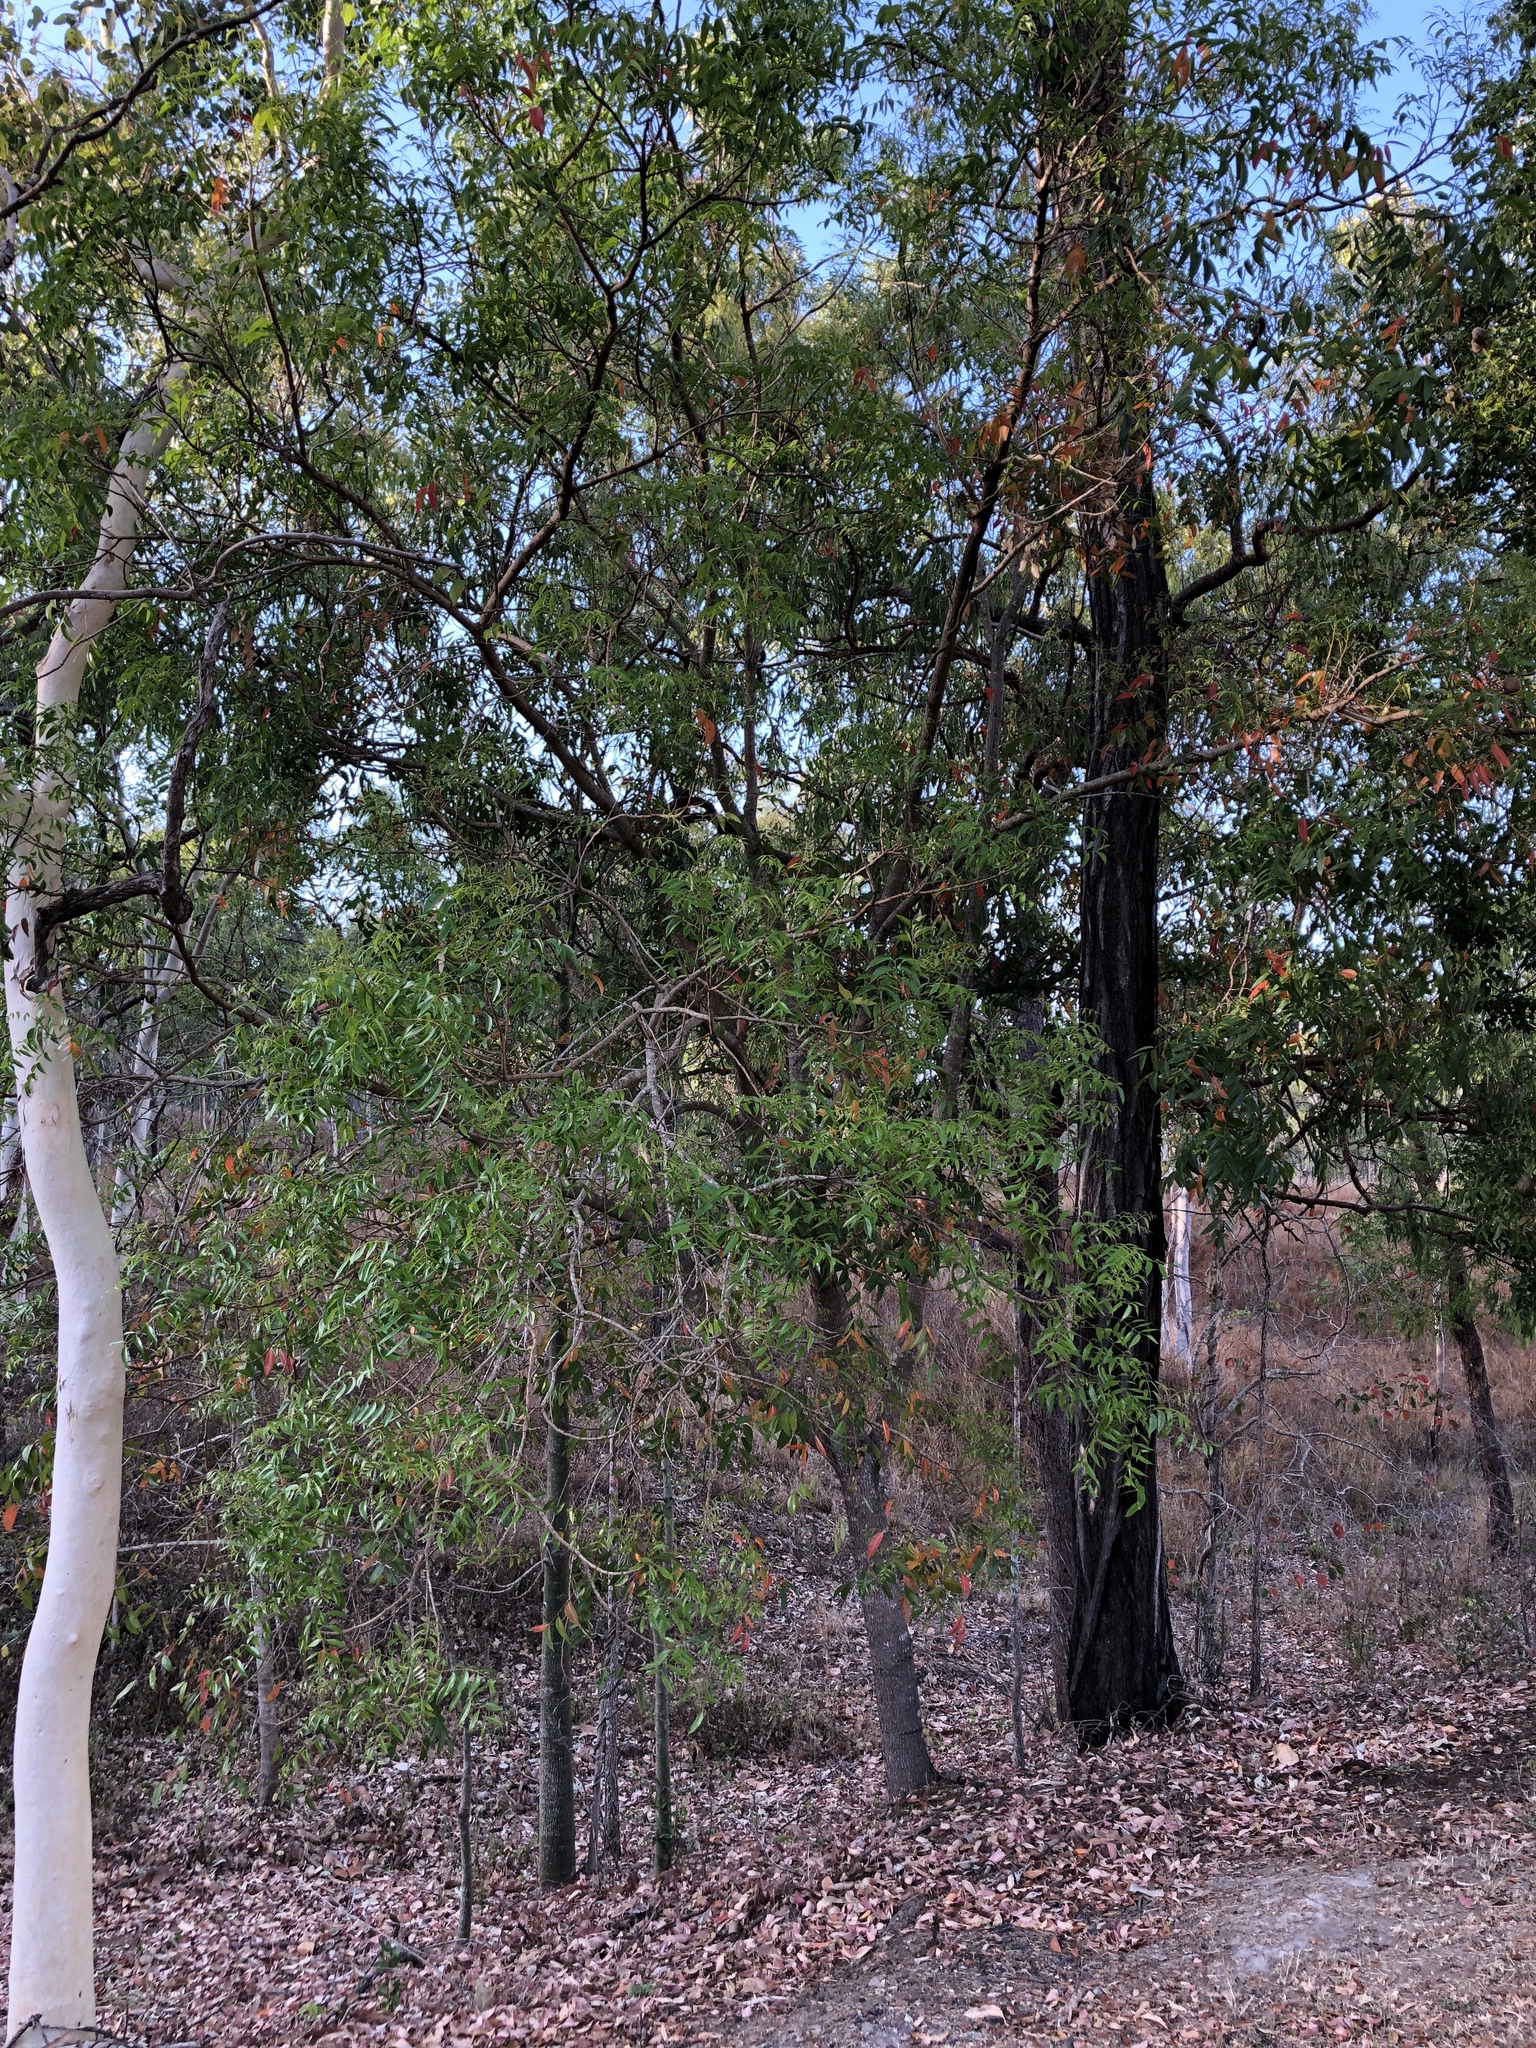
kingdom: Plantae
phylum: Tracheophyta
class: Magnoliopsida
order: Sapindales
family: Anacardiaceae
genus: Euroschinus
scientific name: Euroschinus falcatus
